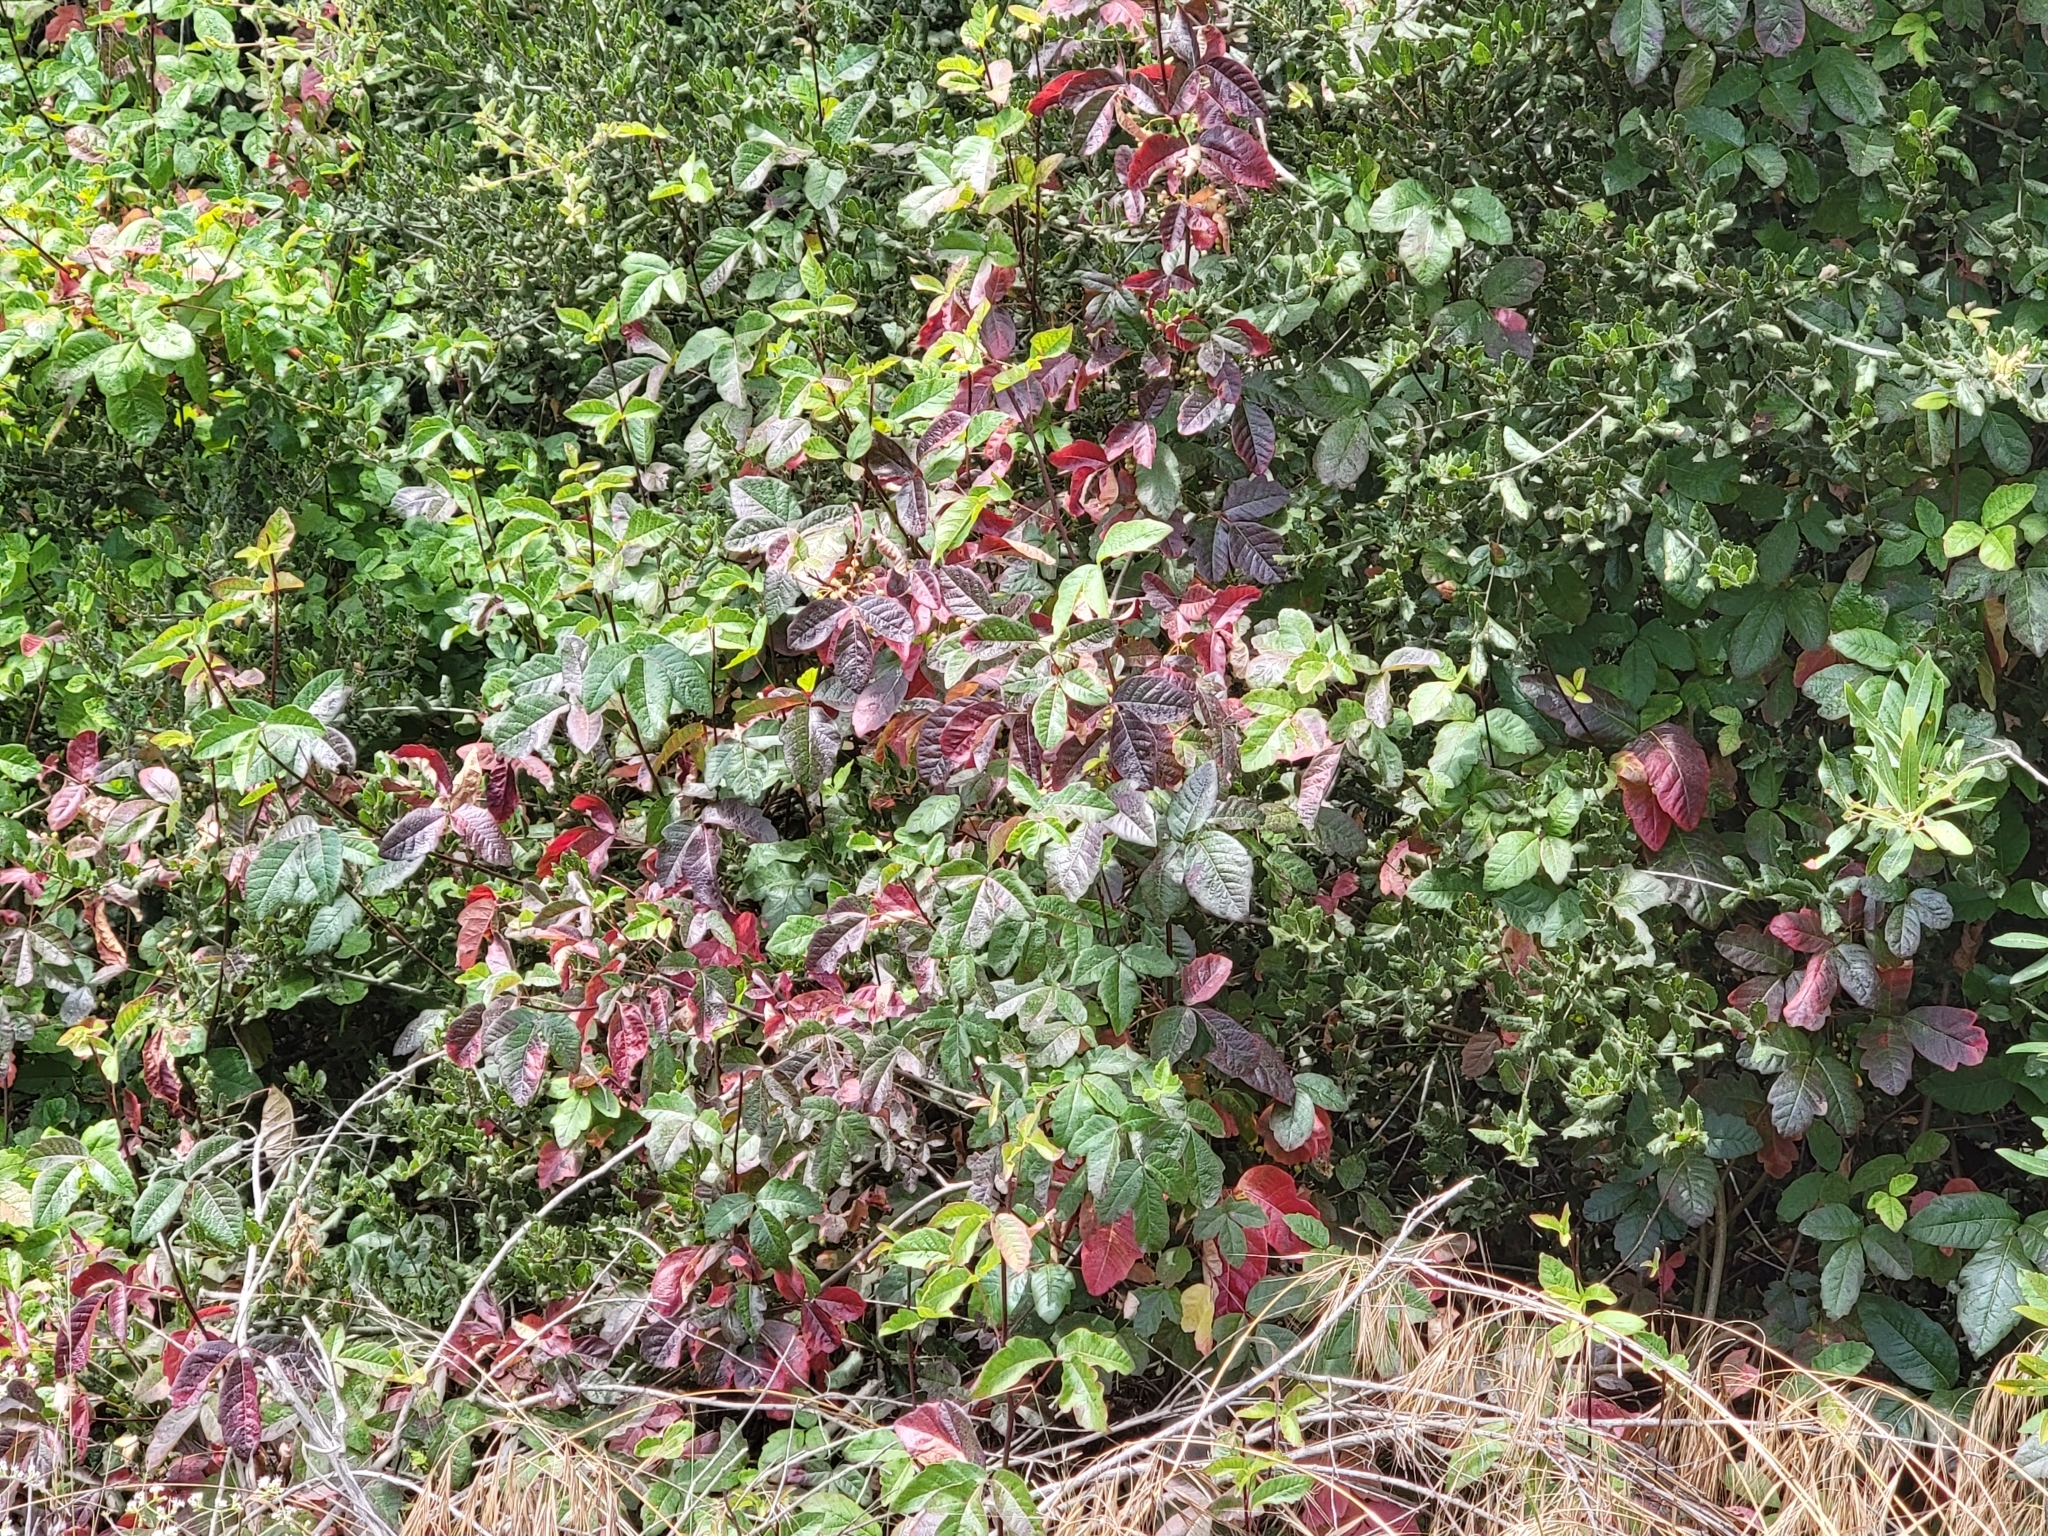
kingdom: Plantae
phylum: Tracheophyta
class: Magnoliopsida
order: Sapindales
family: Anacardiaceae
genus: Toxicodendron
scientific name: Toxicodendron diversilobum
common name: Pacific poison-oak
